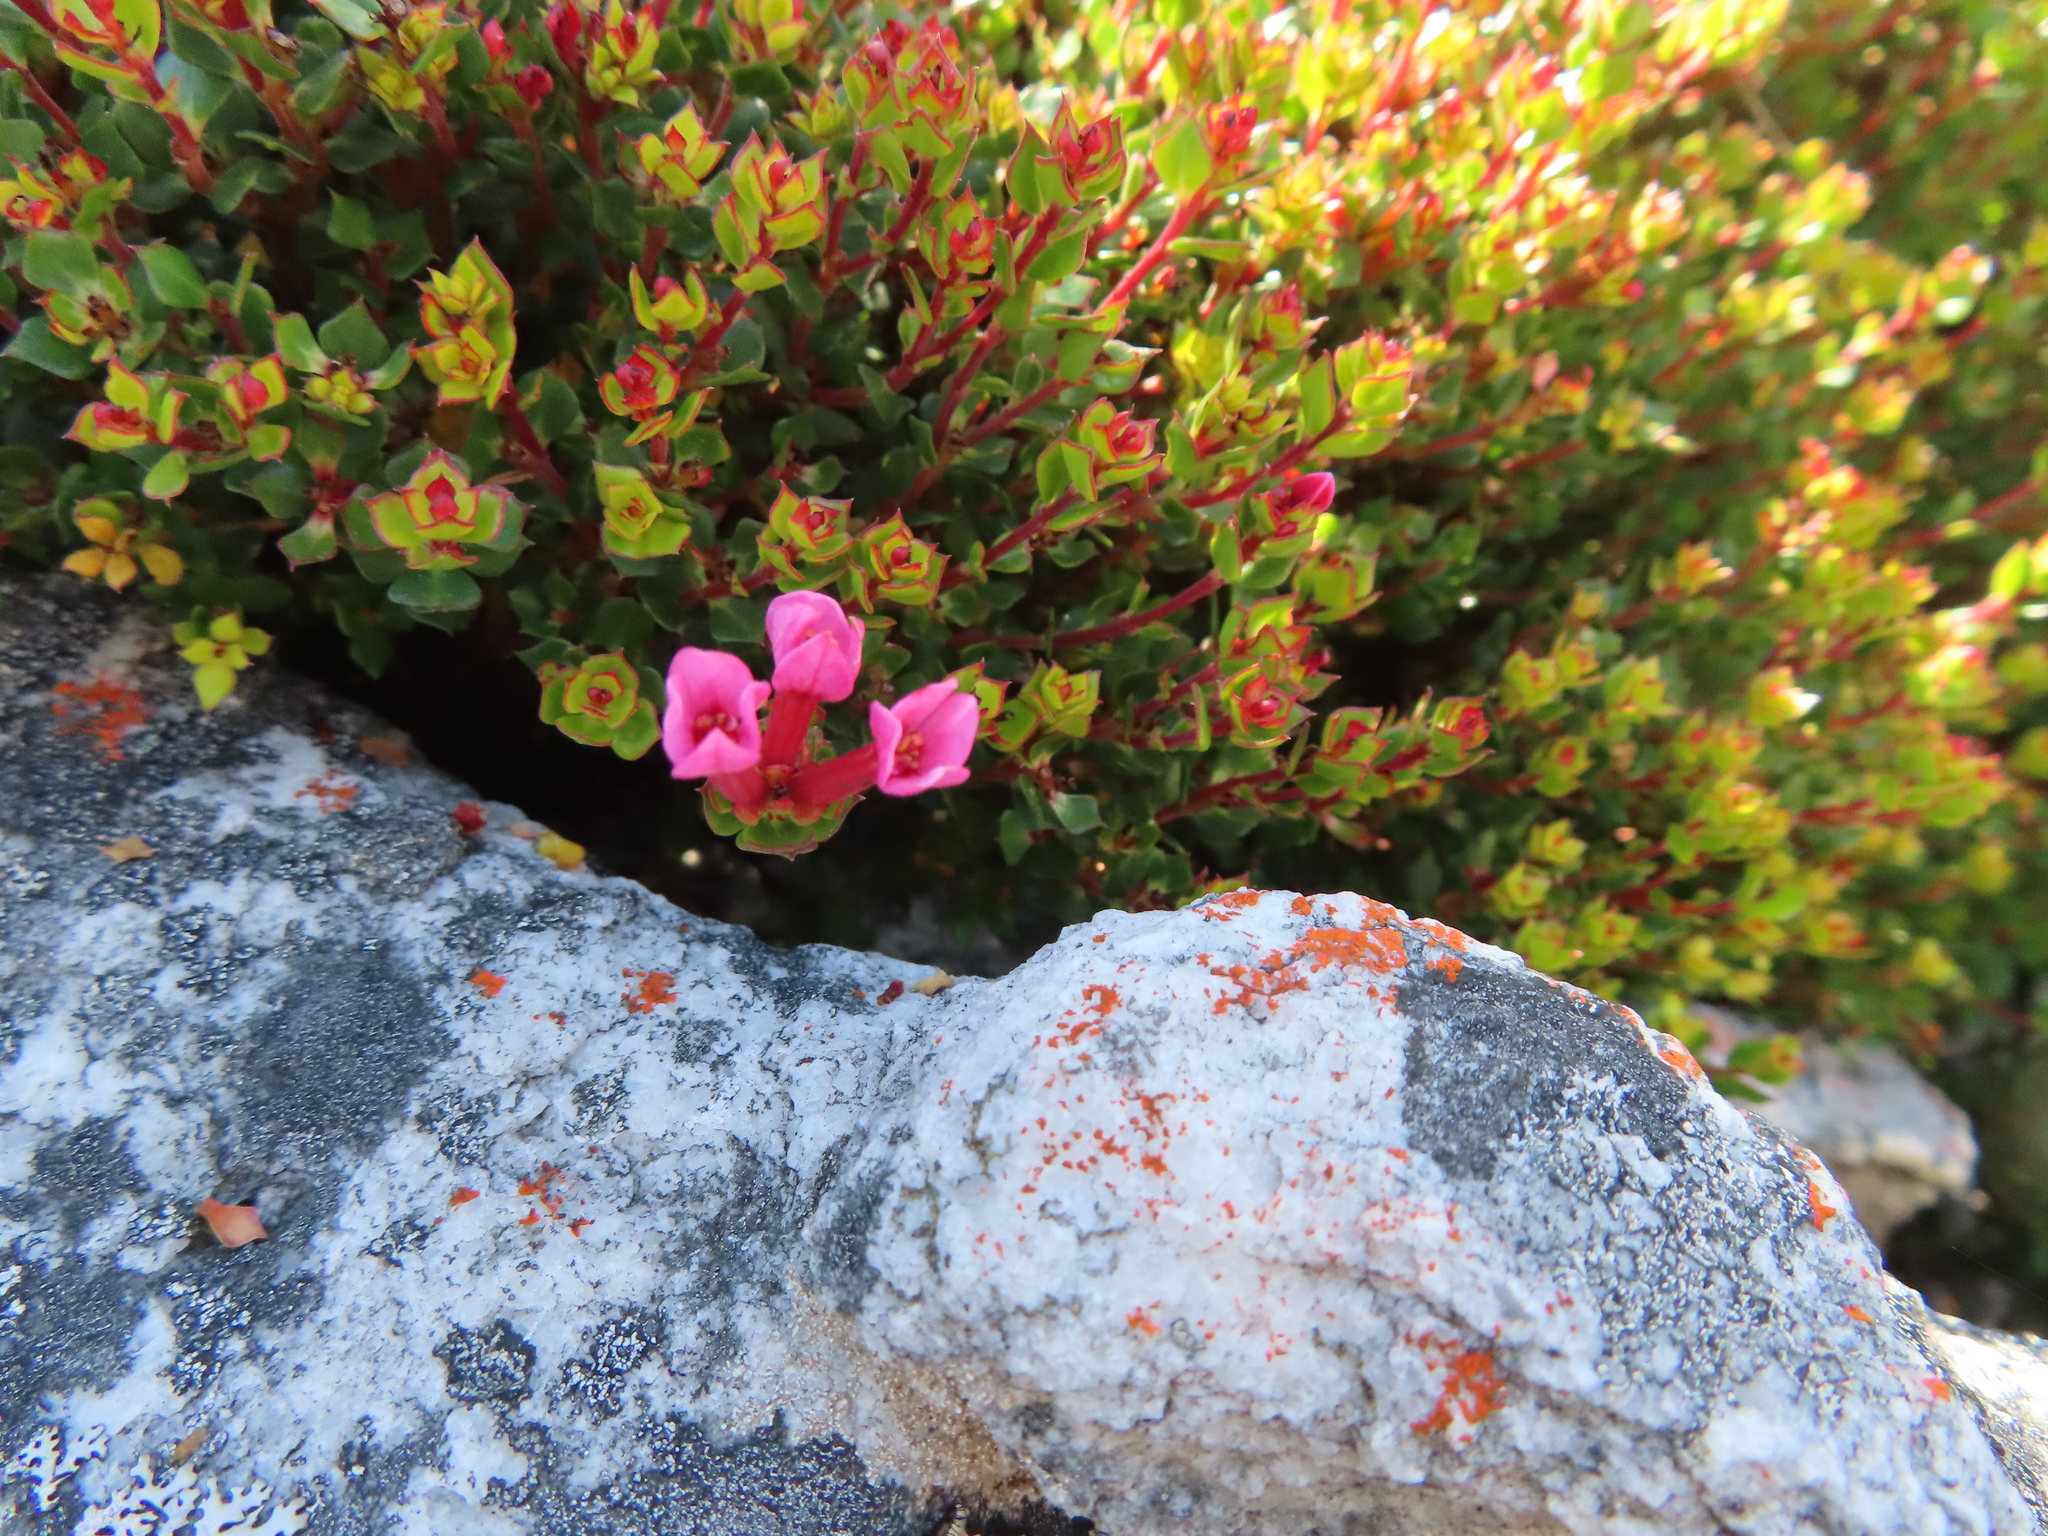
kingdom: Plantae
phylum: Tracheophyta
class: Magnoliopsida
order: Myrtales
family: Penaeaceae
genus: Brachysiphon
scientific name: Brachysiphon acutus
